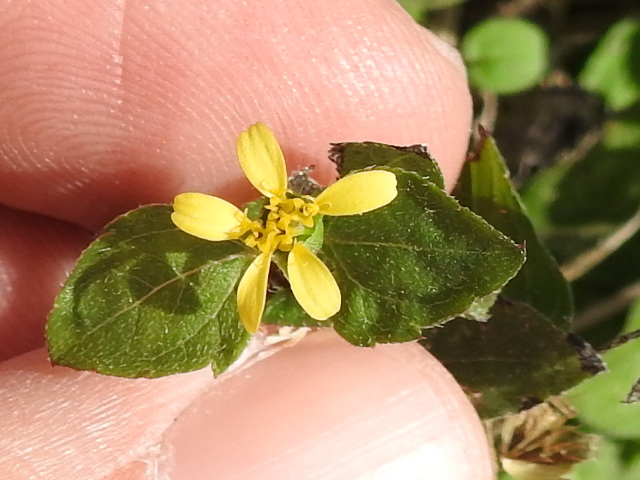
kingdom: Plantae
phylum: Tracheophyta
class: Magnoliopsida
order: Asterales
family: Asteraceae
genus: Calyptocarpus
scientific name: Calyptocarpus vialis
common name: Straggler daisy
